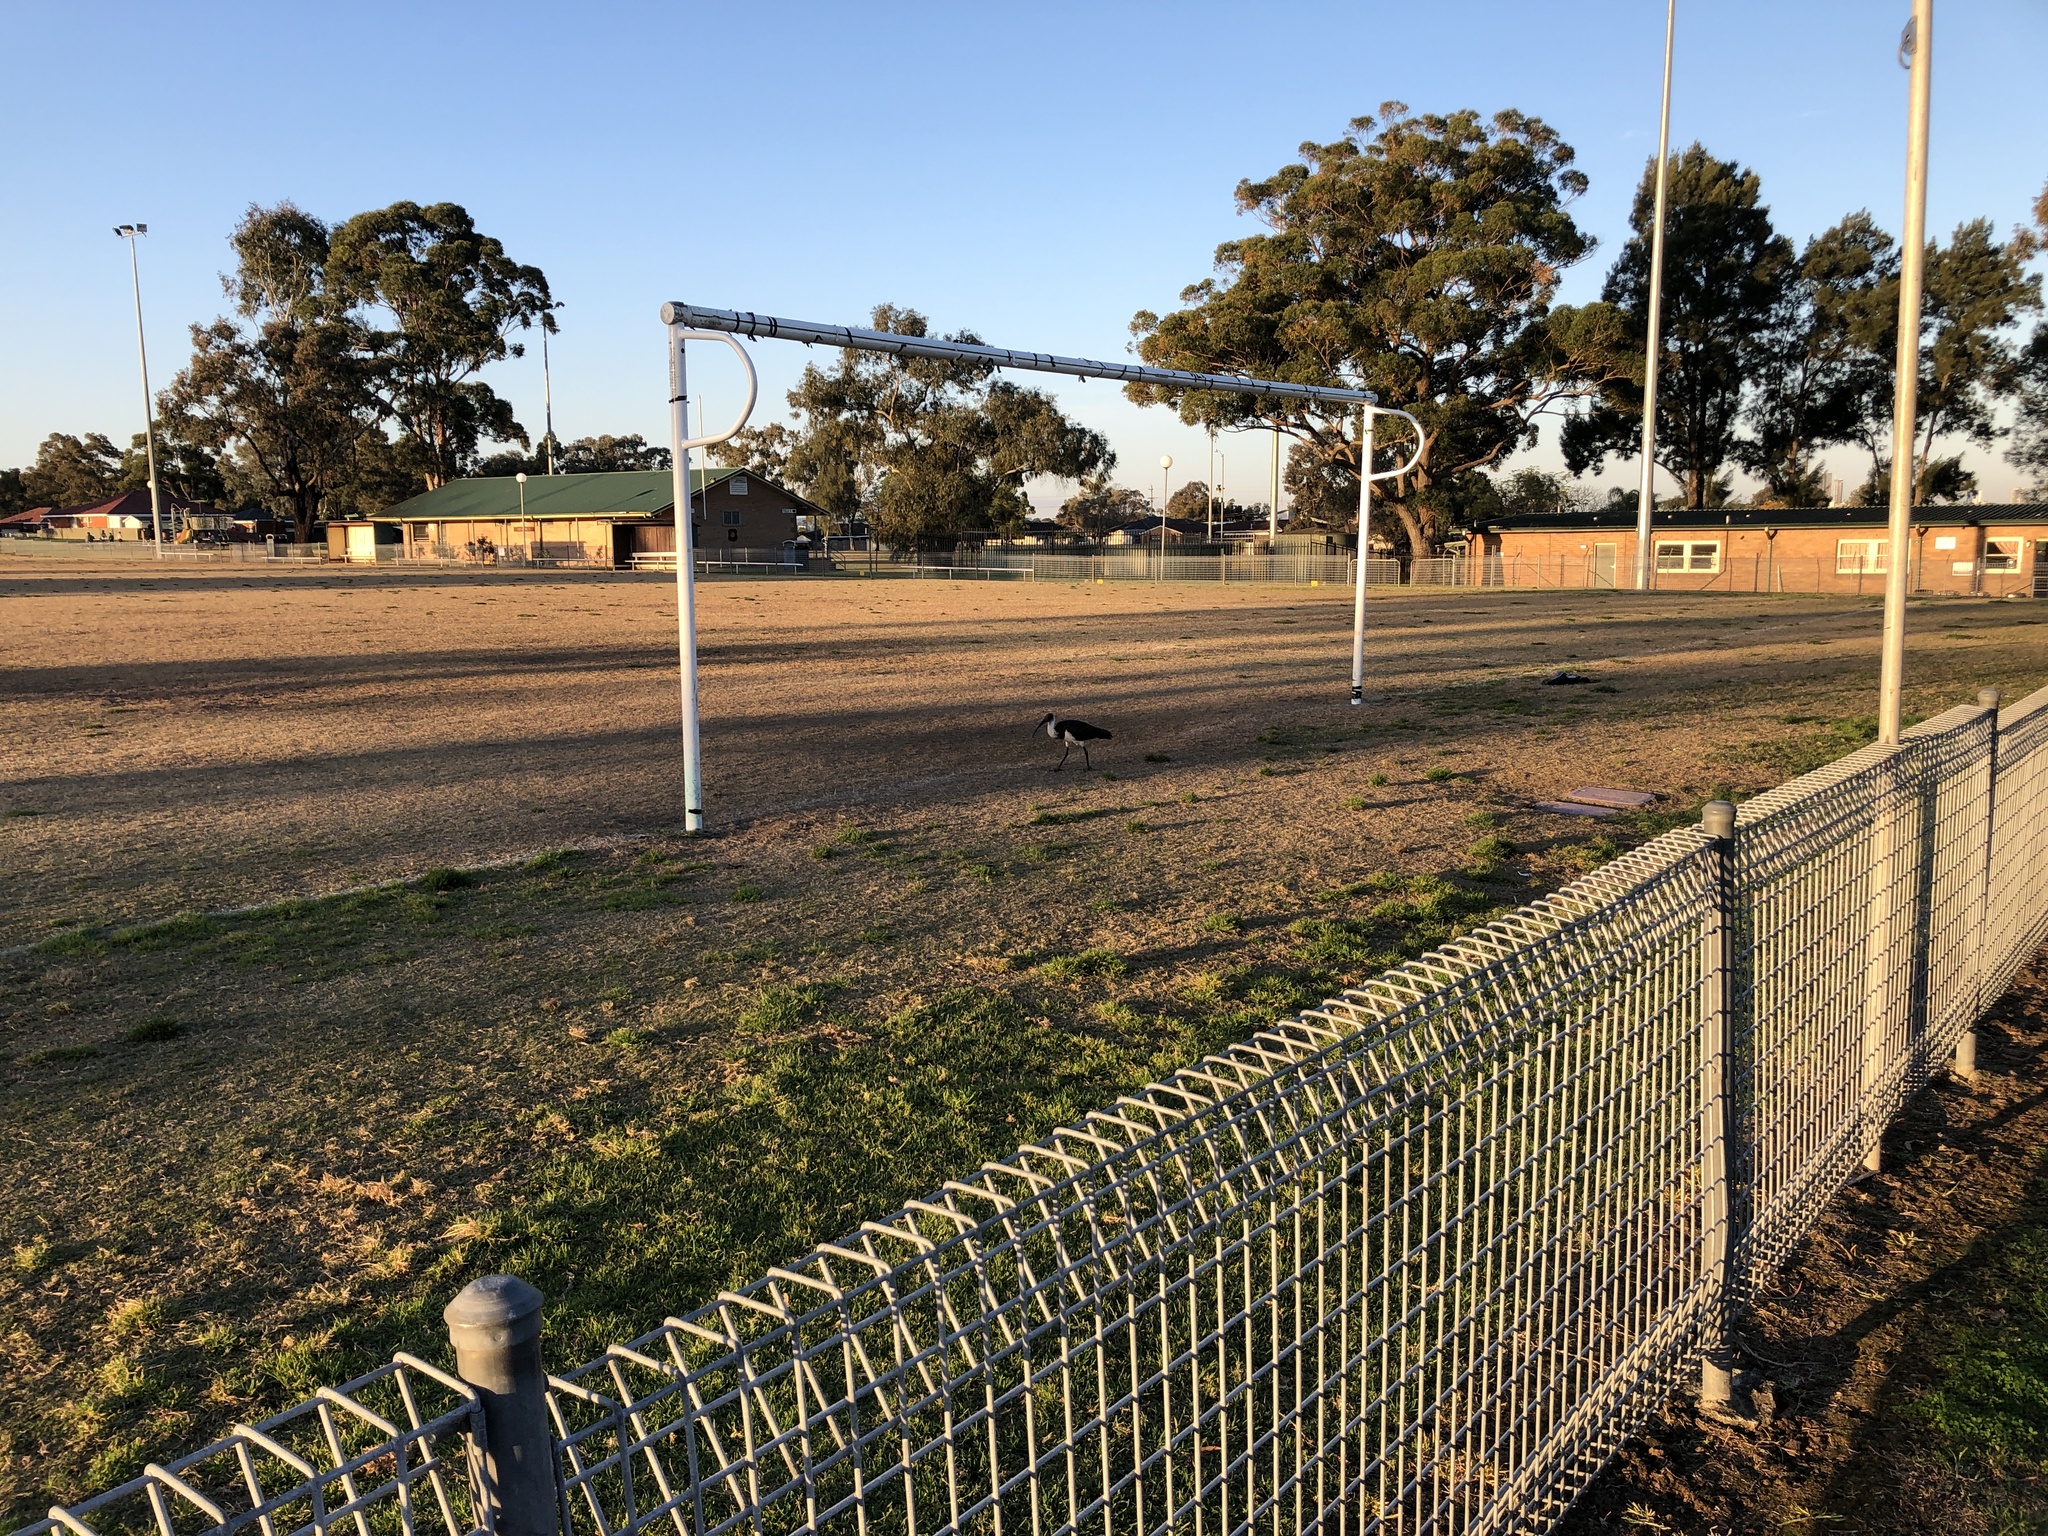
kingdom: Animalia
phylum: Chordata
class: Aves
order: Pelecaniformes
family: Threskiornithidae
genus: Threskiornis
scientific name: Threskiornis spinicollis
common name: Straw-necked ibis
